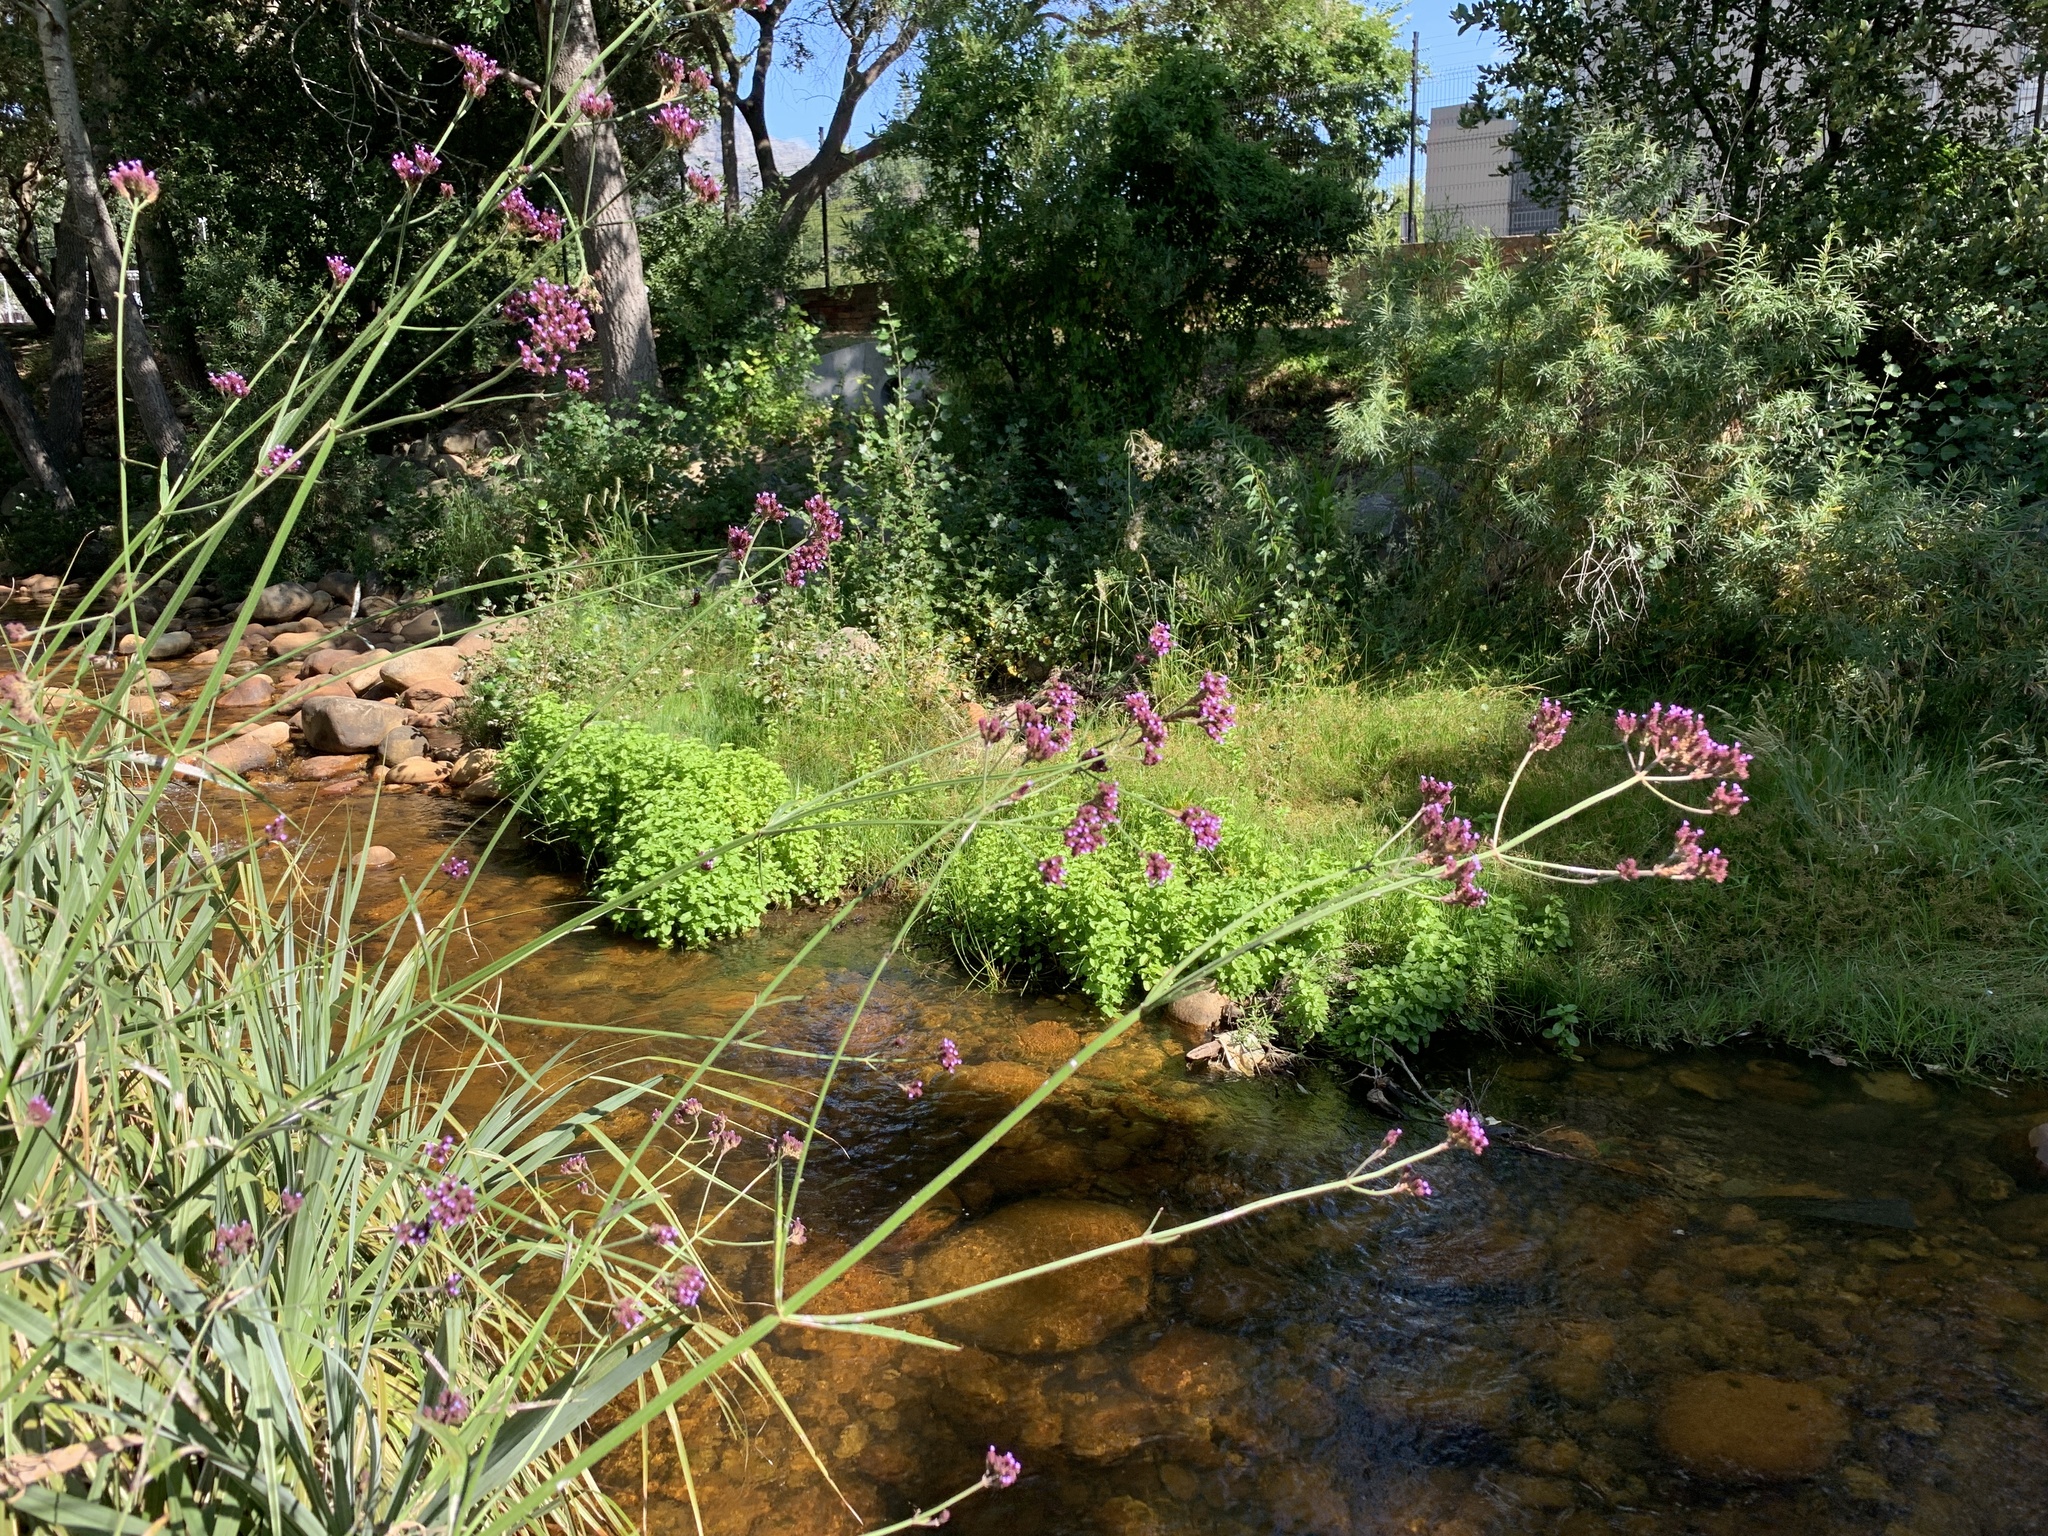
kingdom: Plantae
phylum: Tracheophyta
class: Magnoliopsida
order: Lamiales
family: Verbenaceae
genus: Verbena
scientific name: Verbena bonariensis
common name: Purpletop vervain
